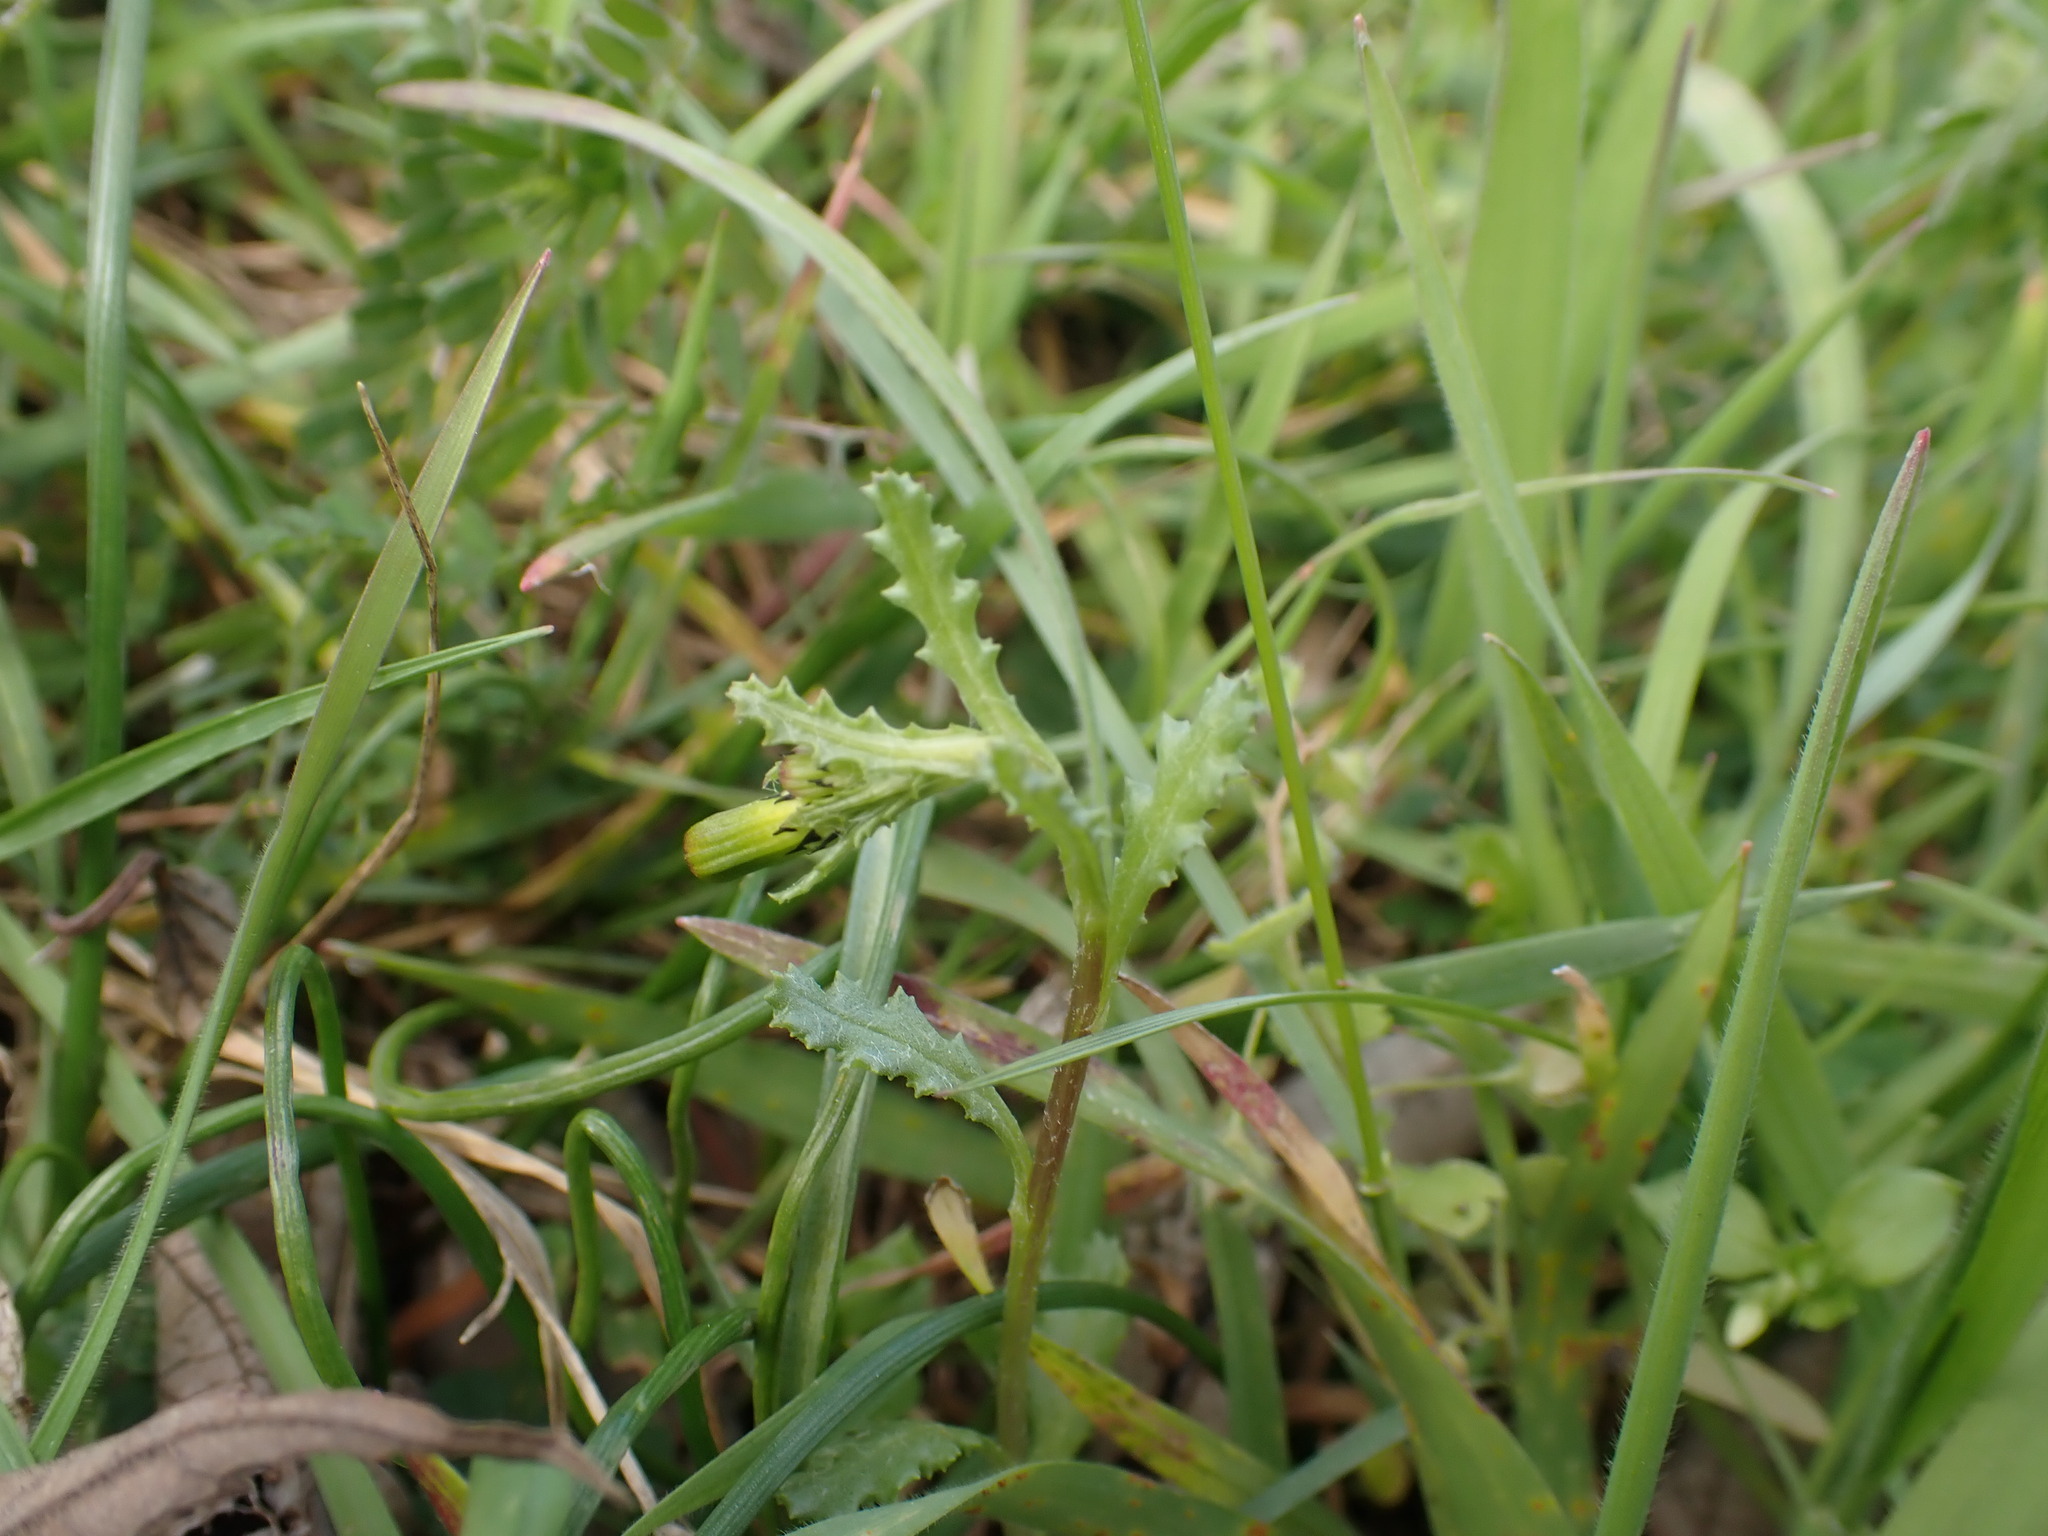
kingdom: Plantae
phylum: Tracheophyta
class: Magnoliopsida
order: Asterales
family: Asteraceae
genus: Senecio
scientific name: Senecio vulgaris
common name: Old-man-in-the-spring
